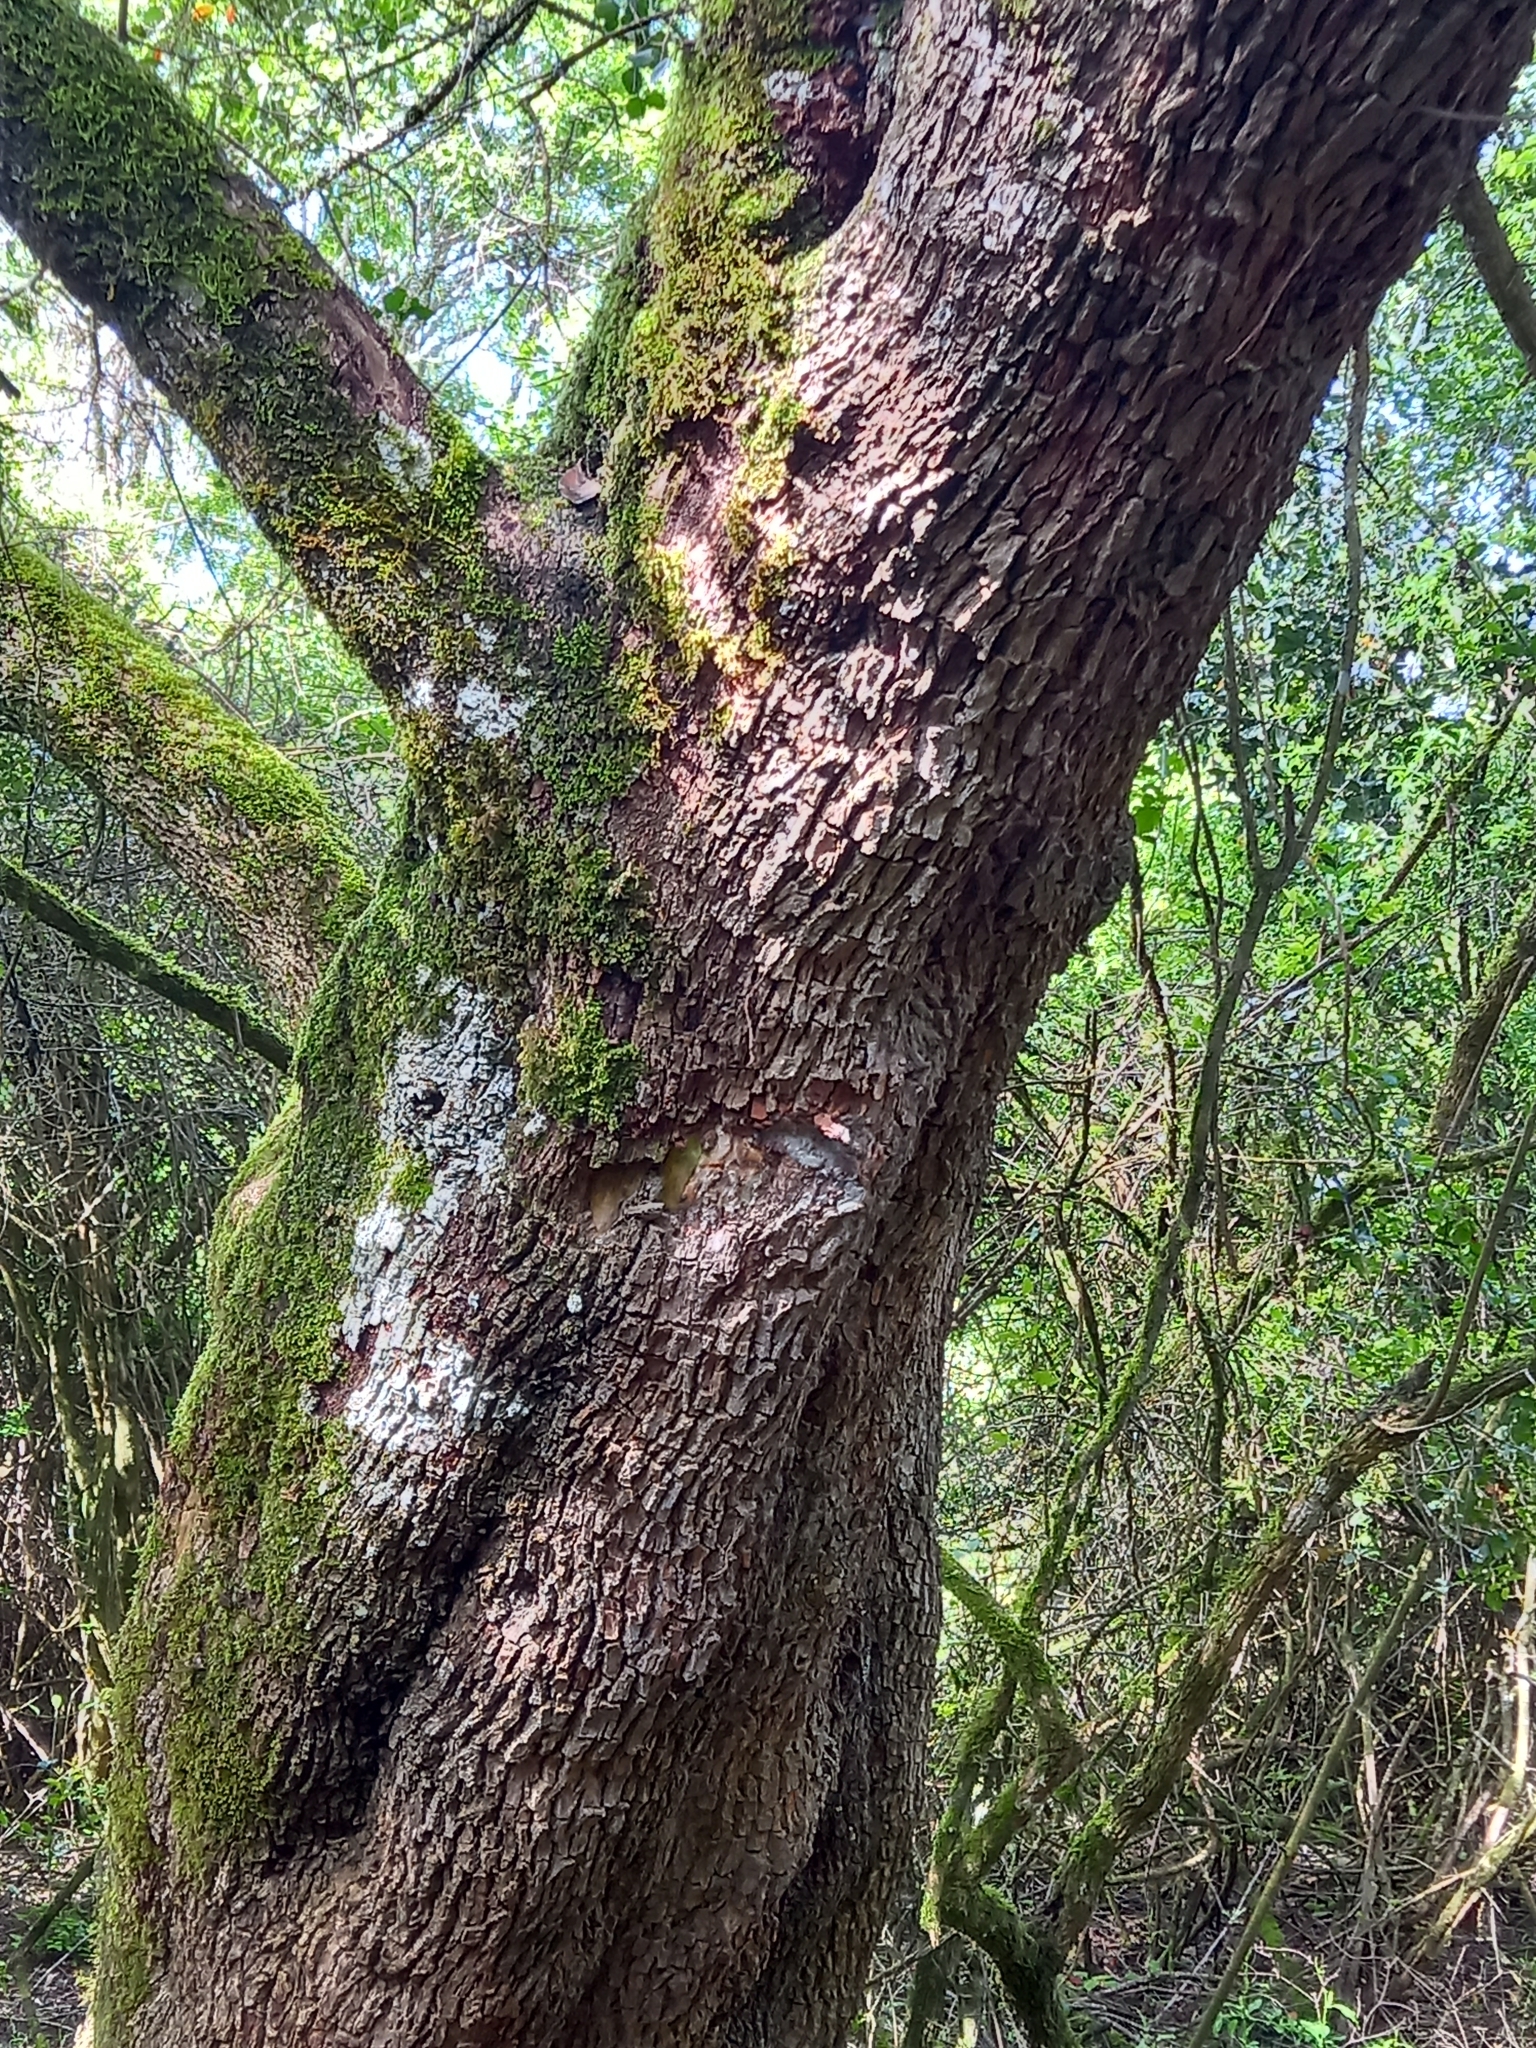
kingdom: Plantae
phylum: Tracheophyta
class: Magnoliopsida
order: Ericales
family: Sapotaceae
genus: Sideroxylon
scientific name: Sideroxylon inerme
